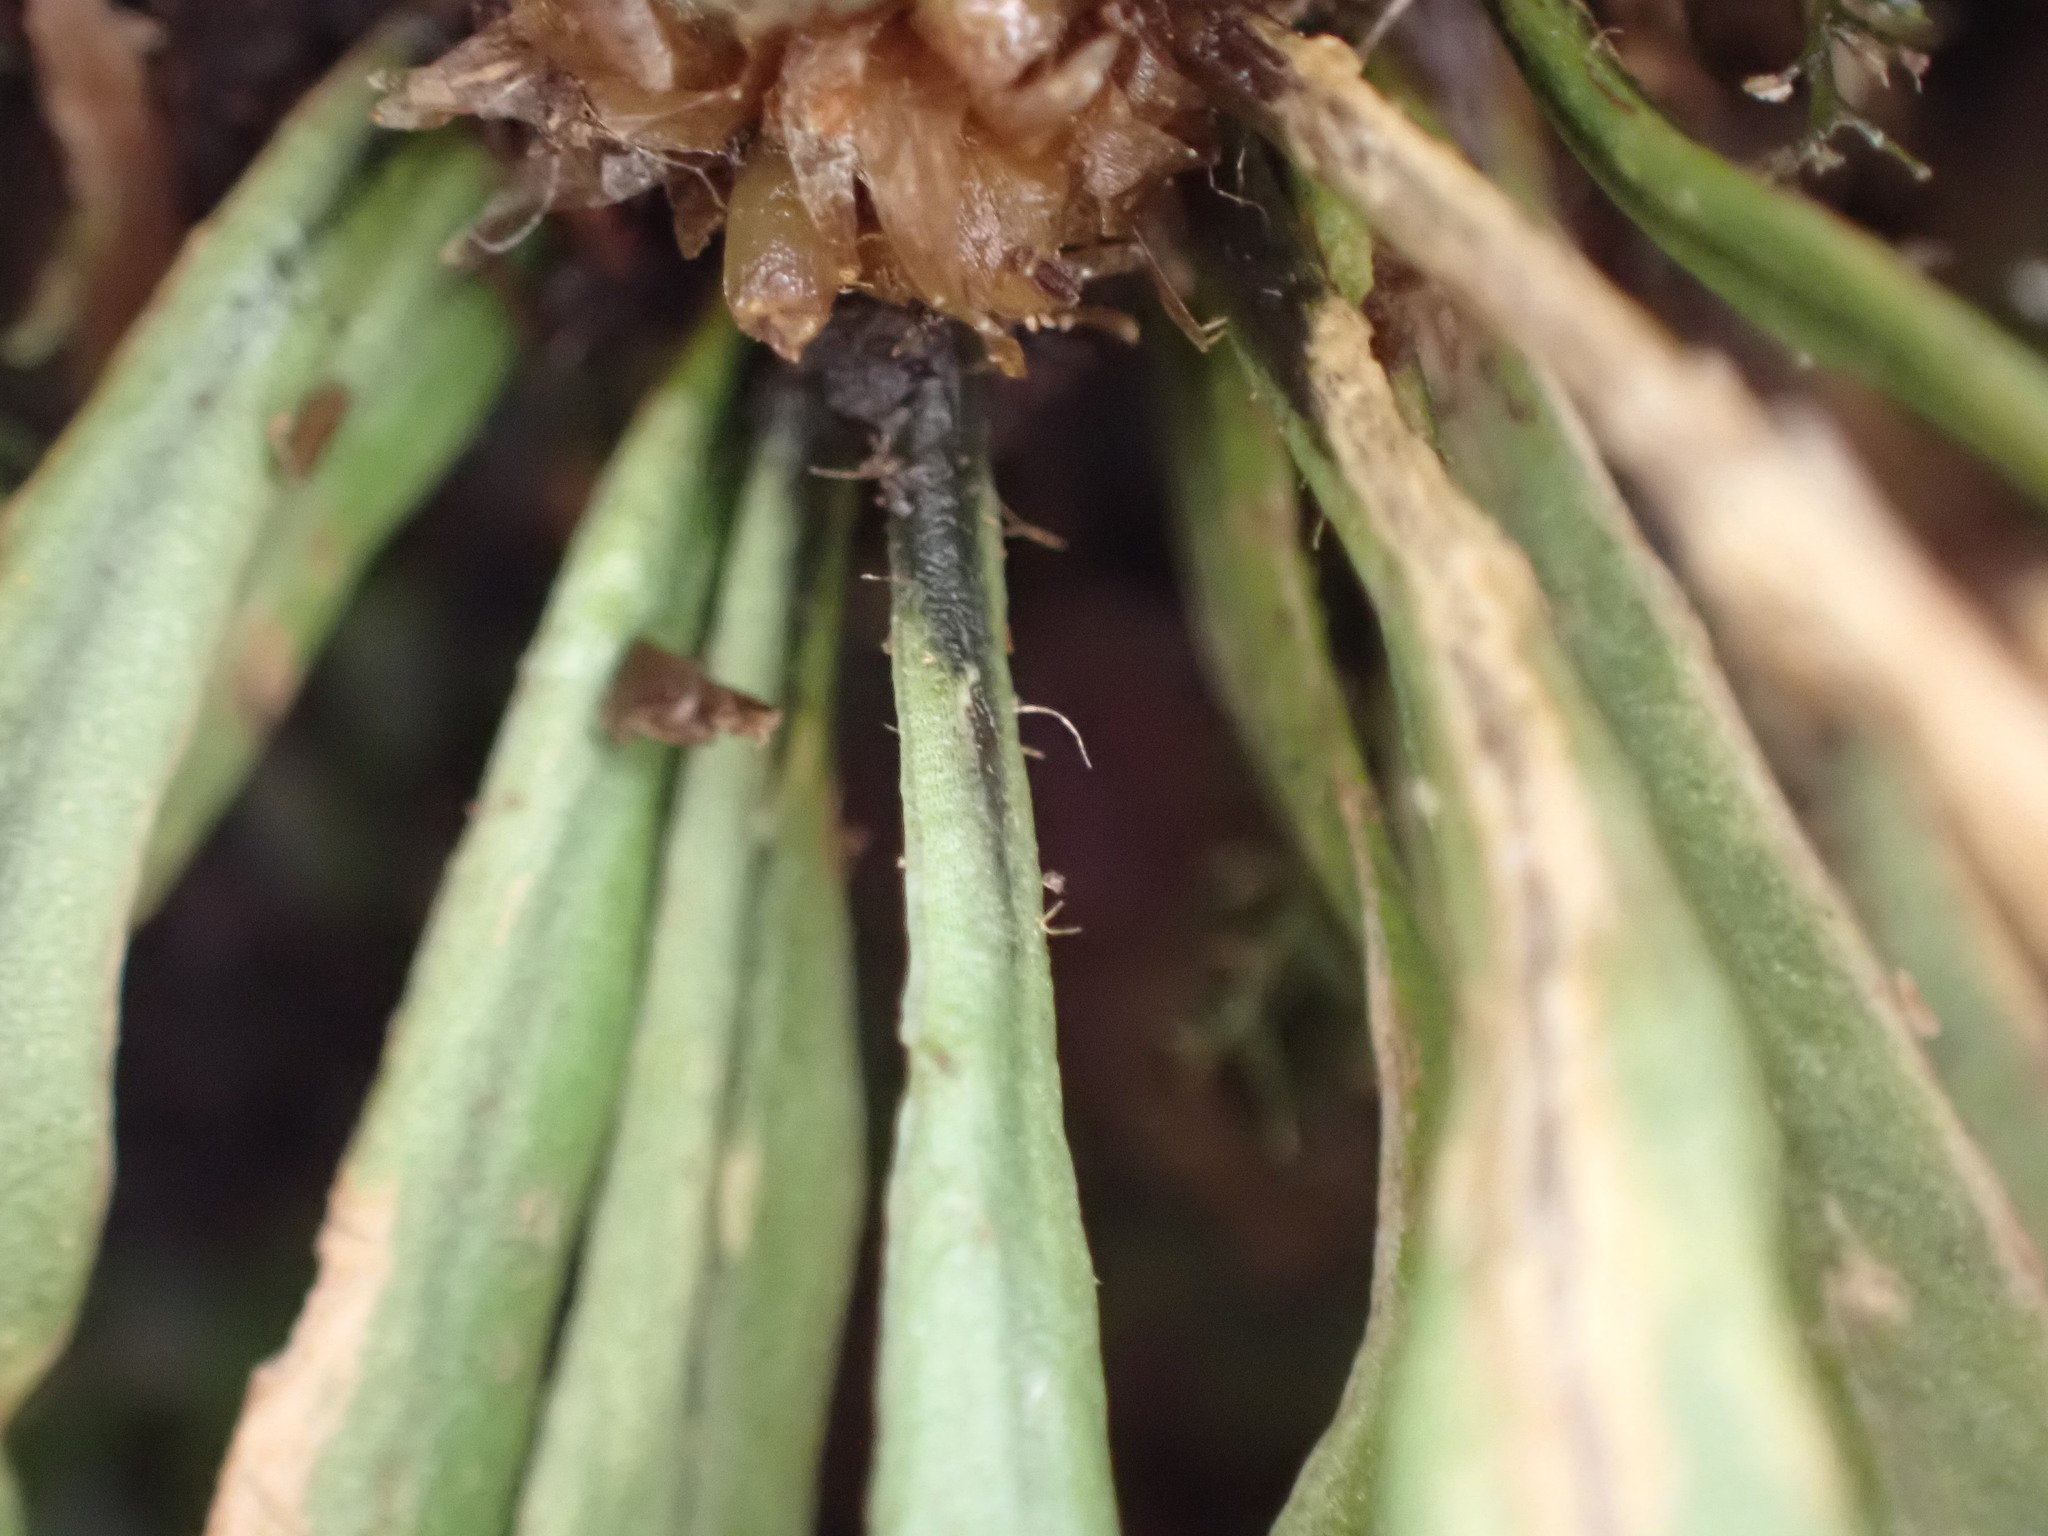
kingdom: Plantae
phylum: Tracheophyta
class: Polypodiopsida
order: Polypodiales
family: Polypodiaceae
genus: Notogrammitis
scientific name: Notogrammitis billardierei
